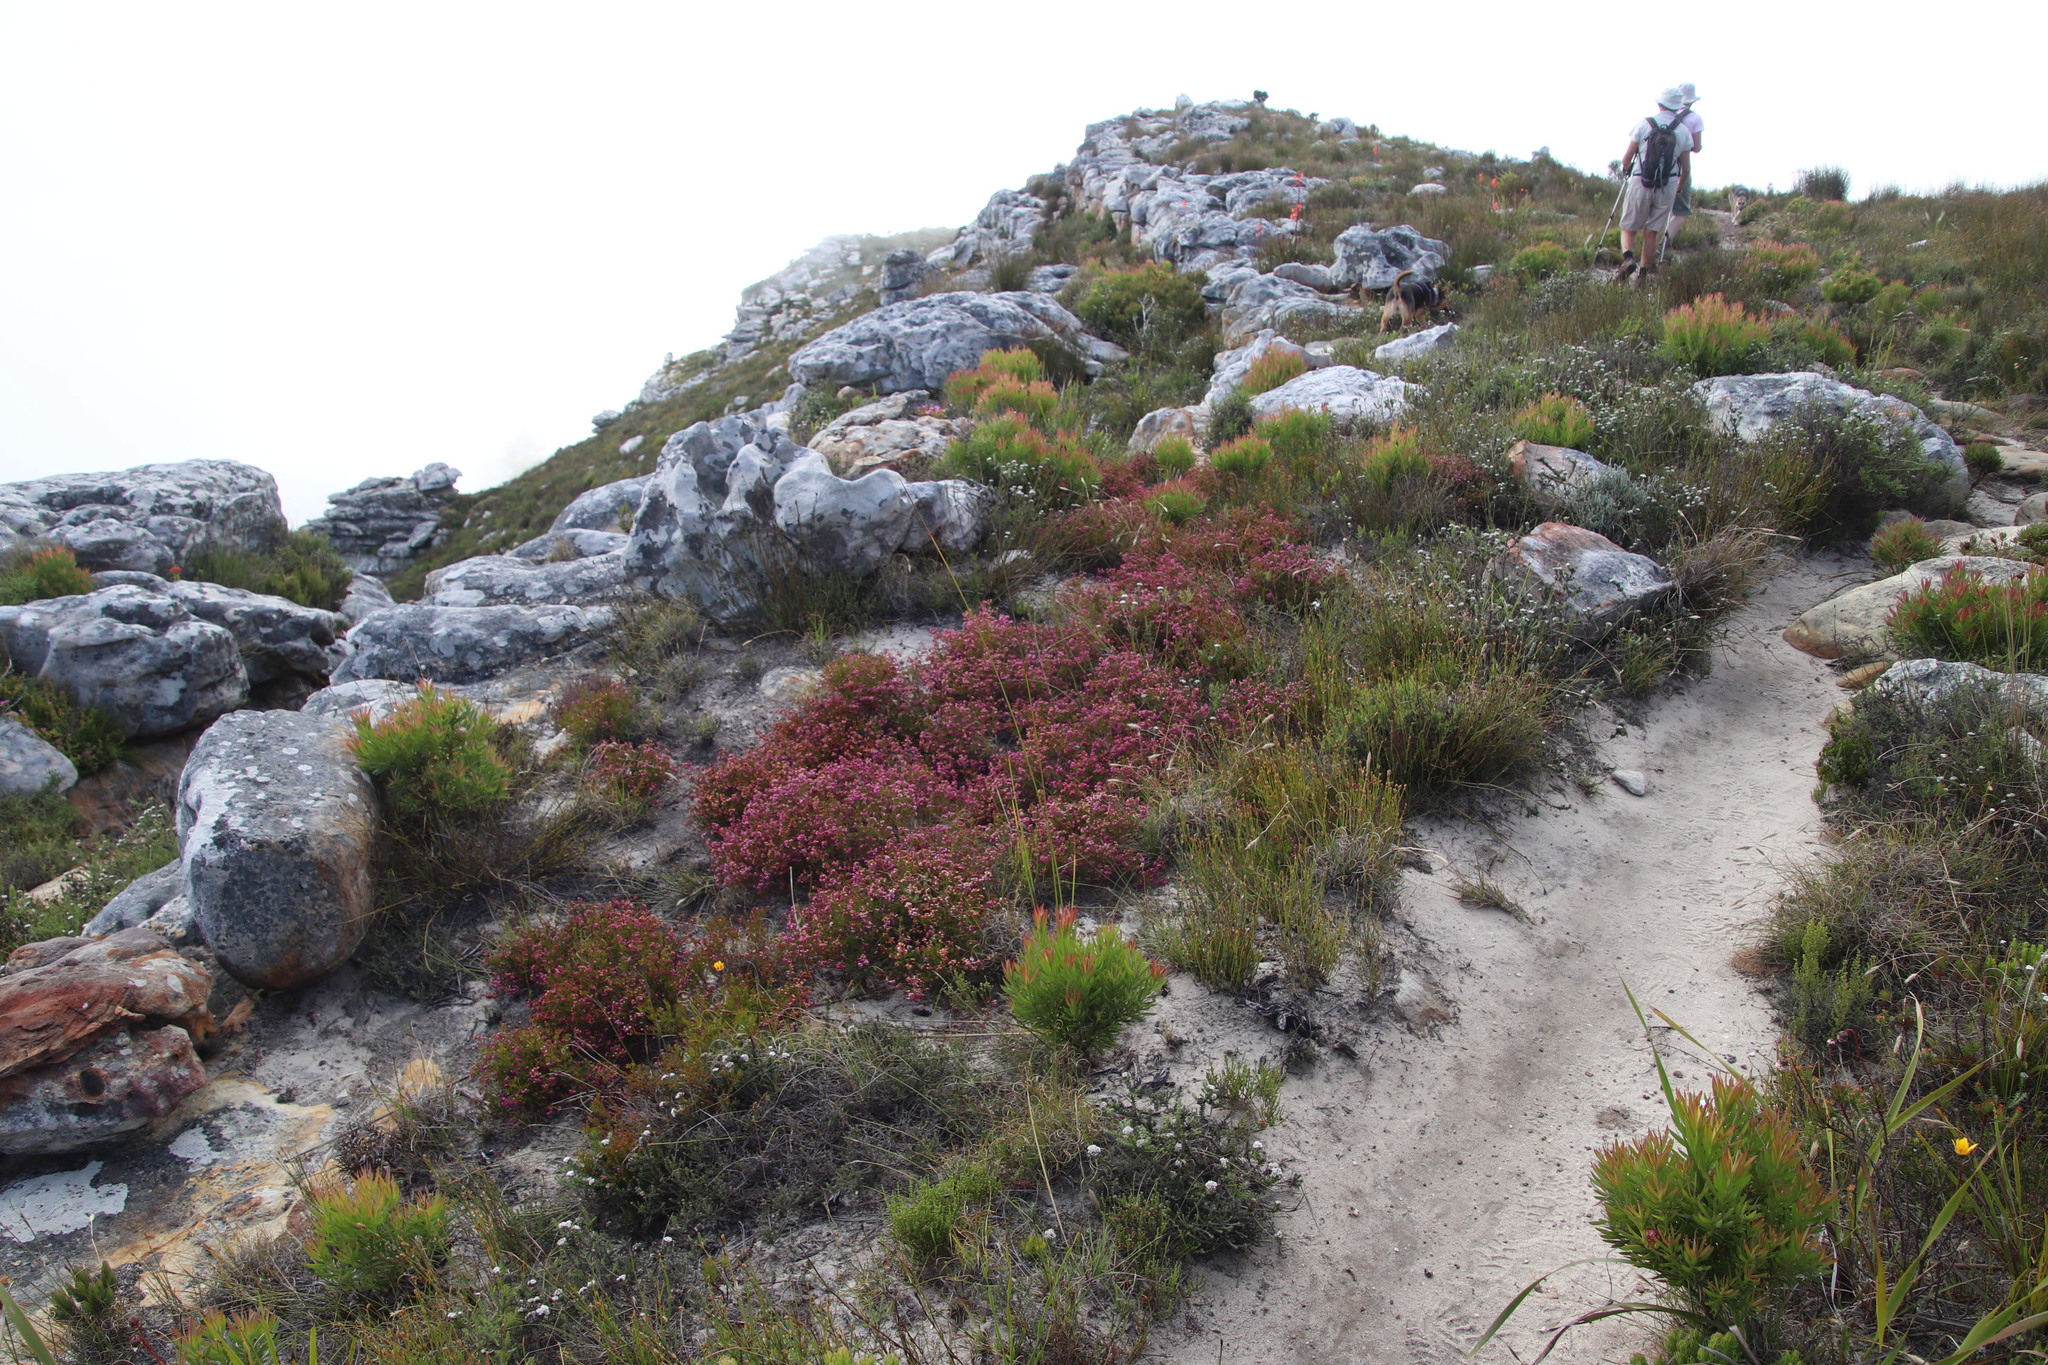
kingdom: Plantae
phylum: Tracheophyta
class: Magnoliopsida
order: Ericales
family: Ericaceae
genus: Erica
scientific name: Erica multumbellifera
